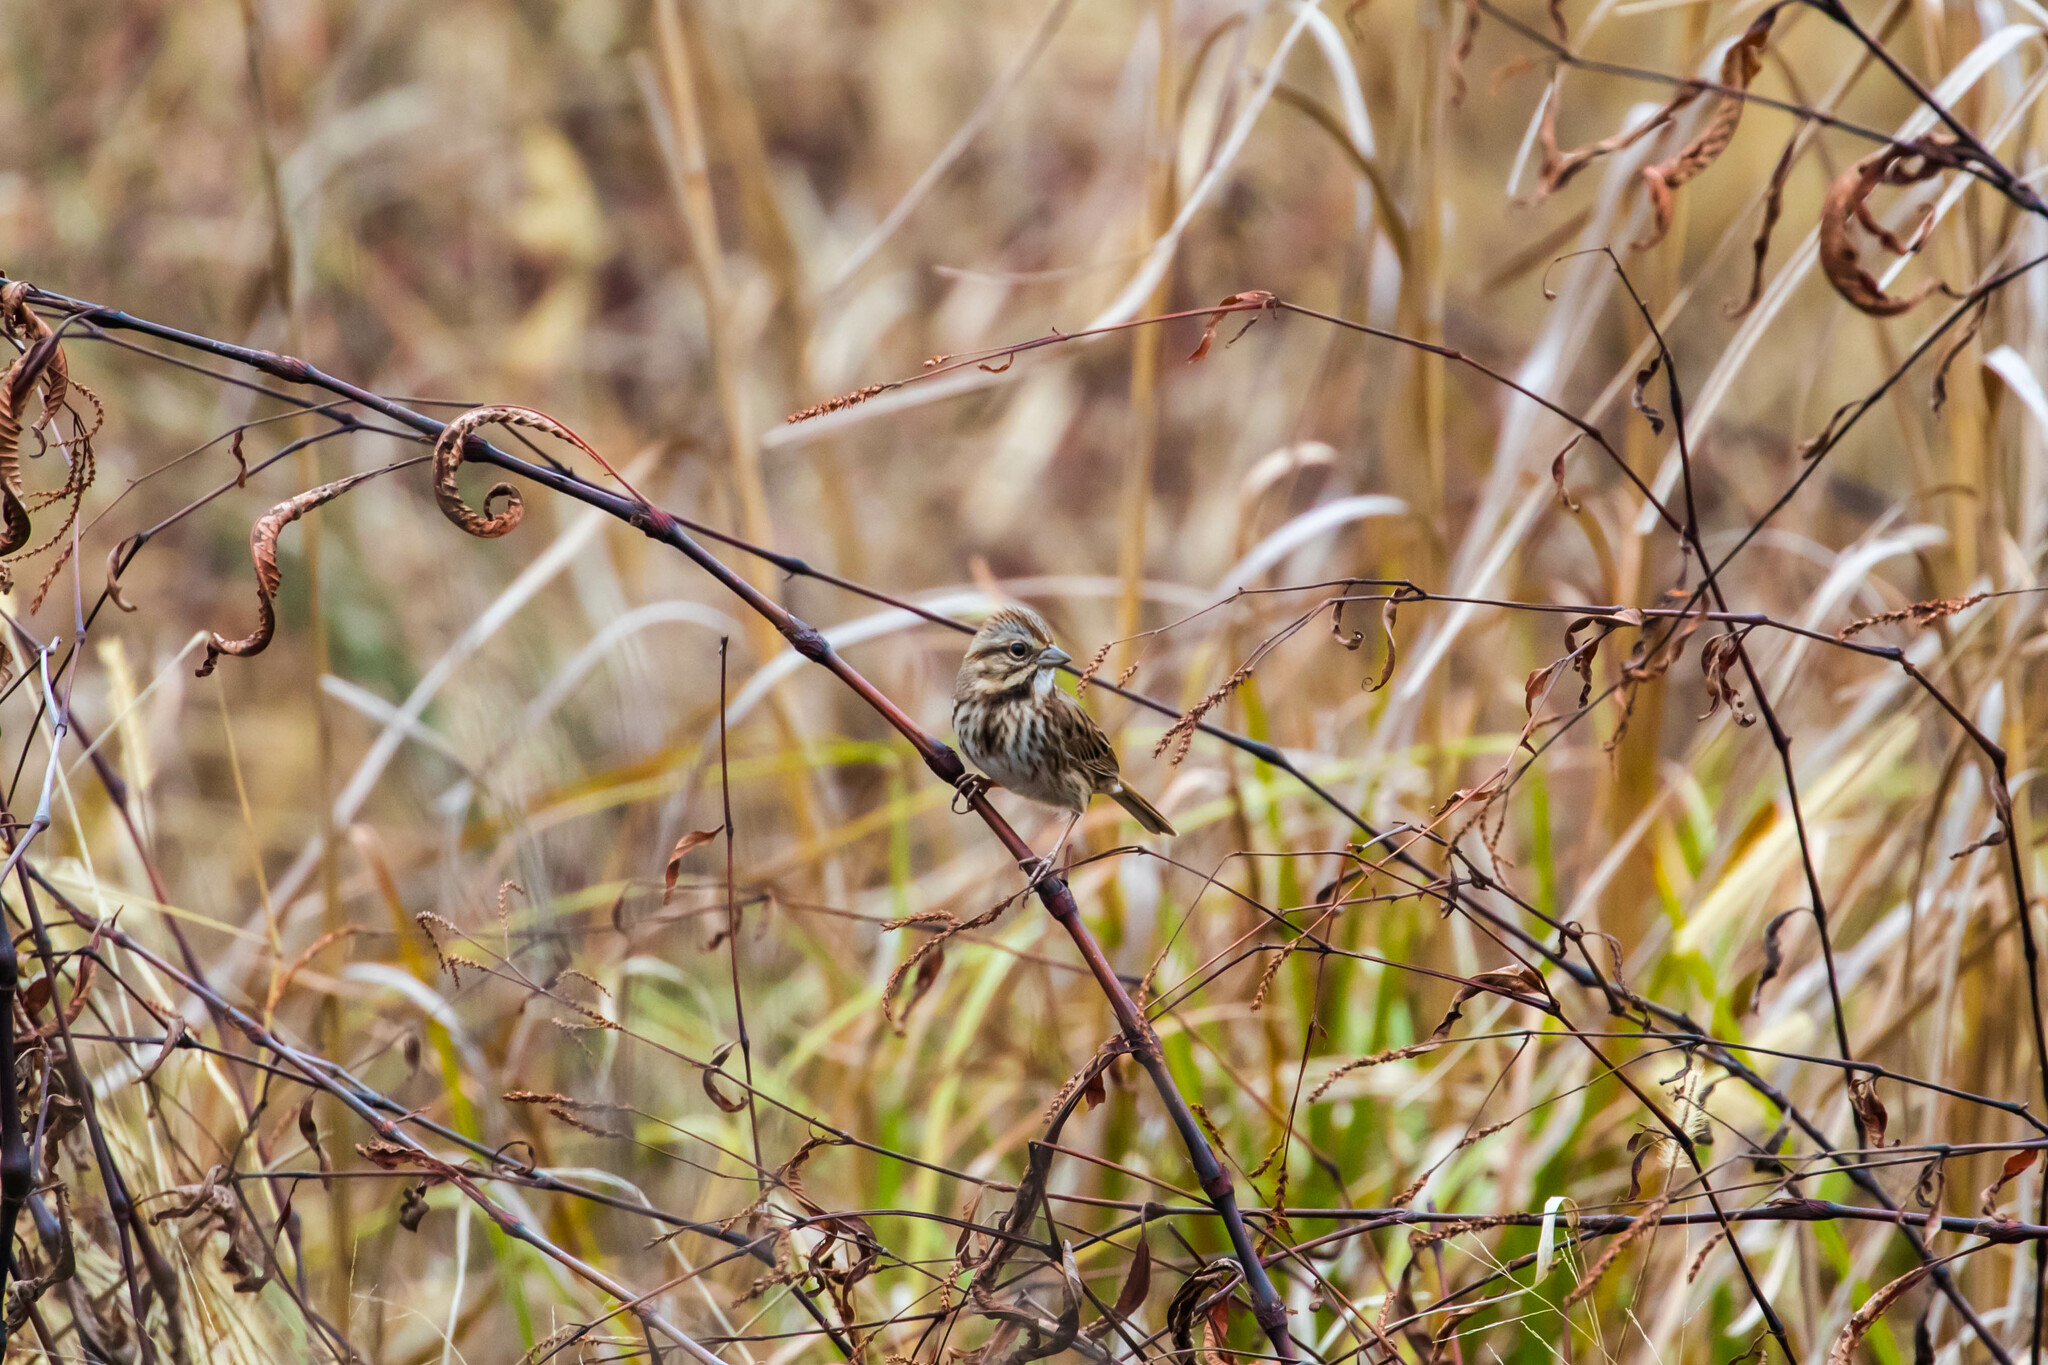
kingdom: Animalia
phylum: Chordata
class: Aves
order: Passeriformes
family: Passerellidae
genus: Melospiza
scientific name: Melospiza melodia
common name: Song sparrow
